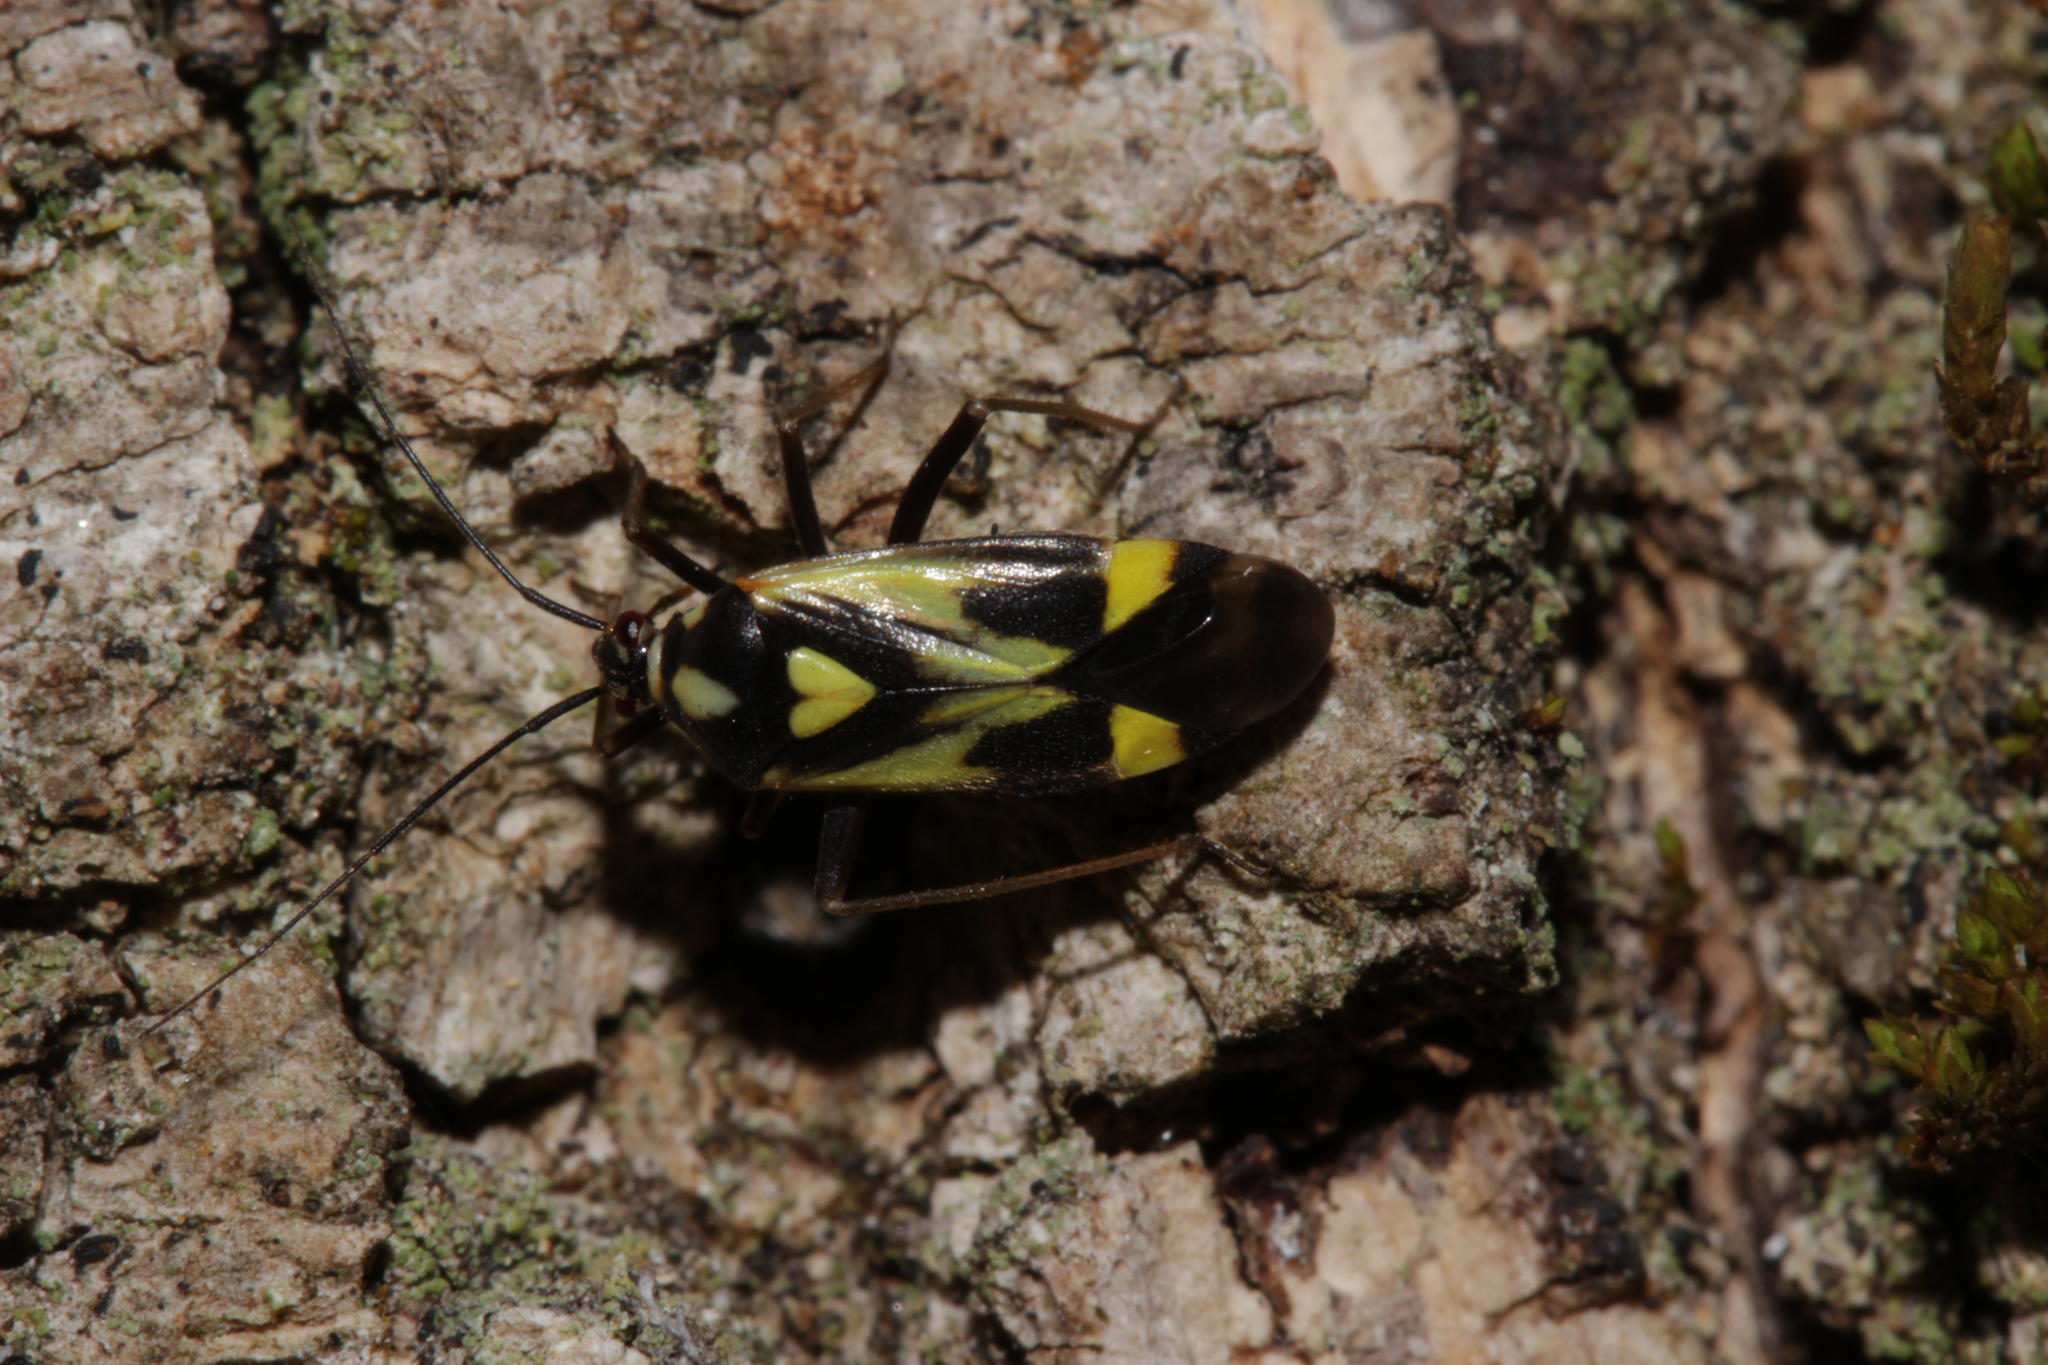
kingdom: Animalia
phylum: Arthropoda
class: Insecta
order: Hemiptera
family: Miridae
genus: Grypocoris
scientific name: Grypocoris sexguttatus
